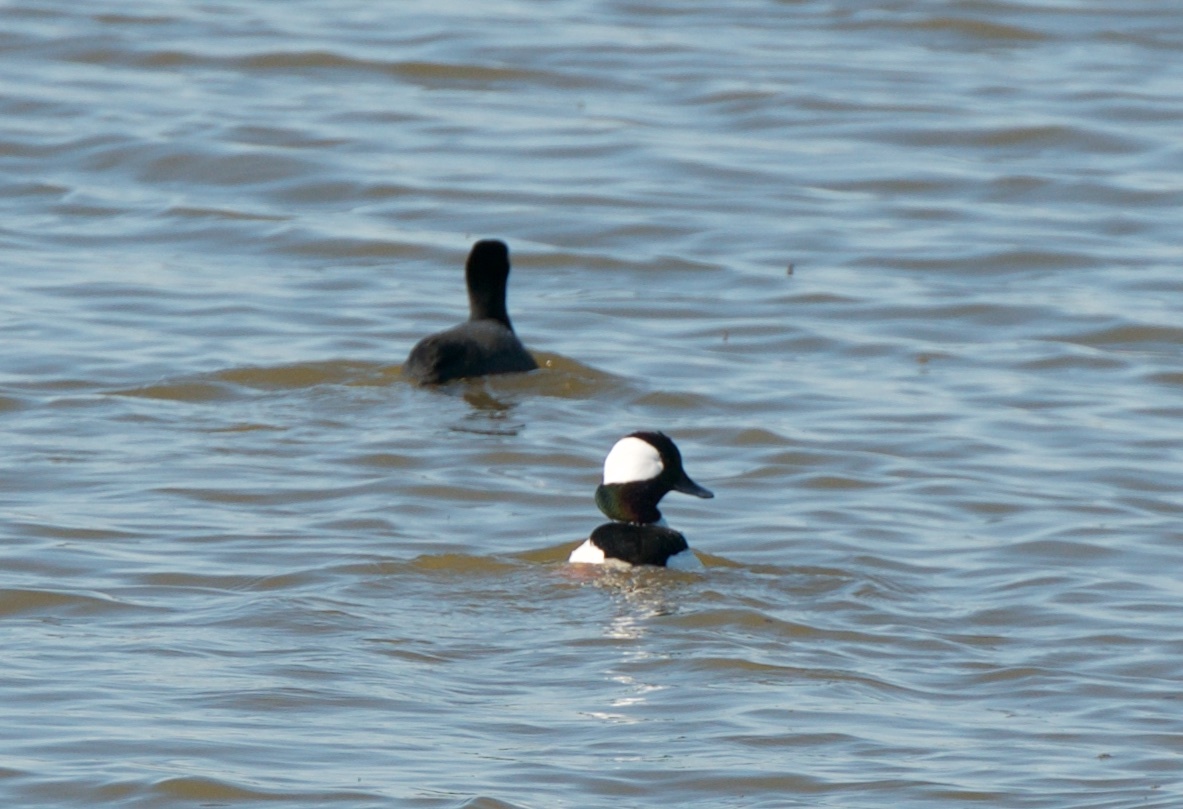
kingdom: Animalia
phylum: Chordata
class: Aves
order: Anseriformes
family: Anatidae
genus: Bucephala
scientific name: Bucephala albeola
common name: Bufflehead
